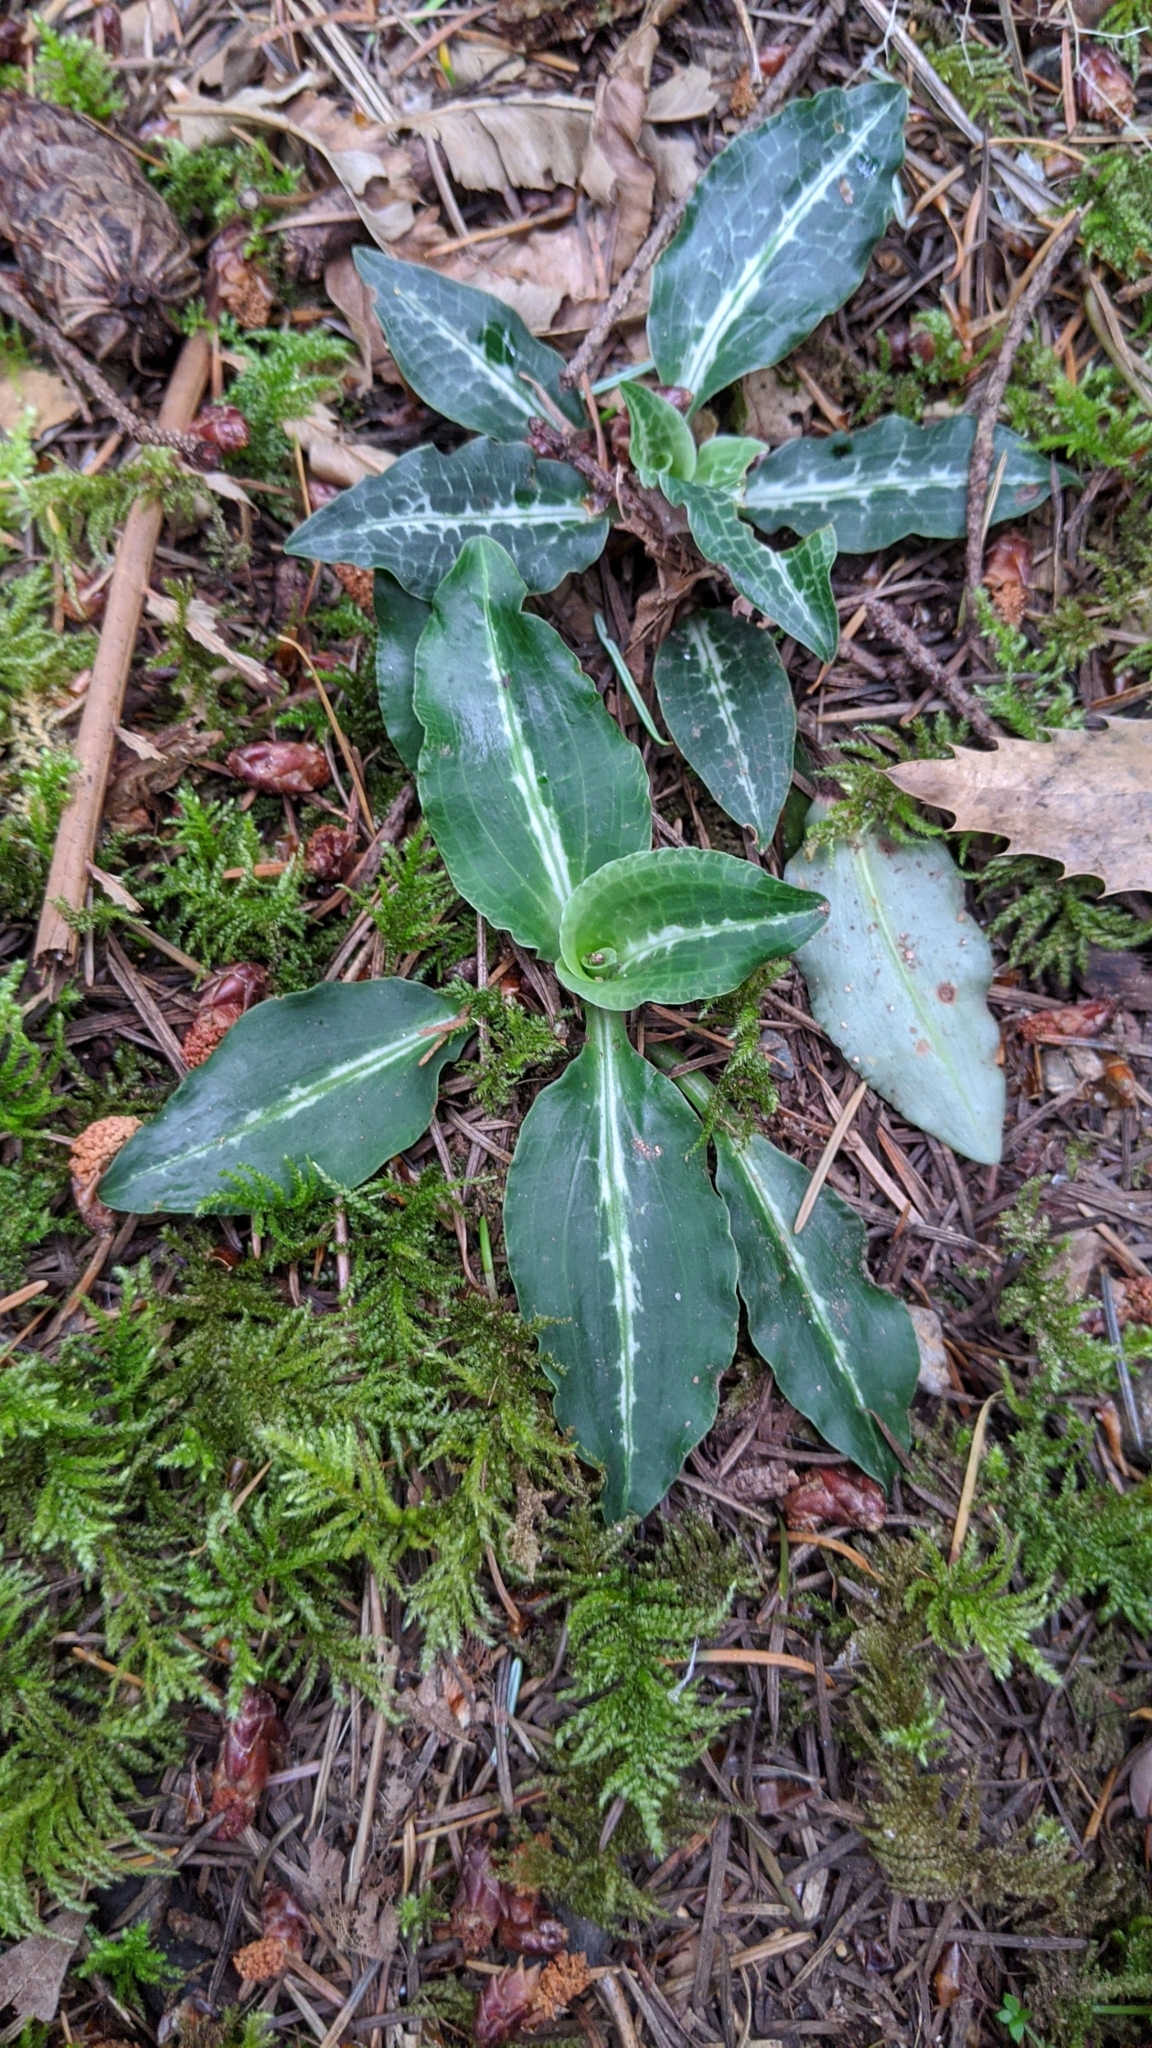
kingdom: Plantae
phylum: Tracheophyta
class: Liliopsida
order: Asparagales
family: Orchidaceae
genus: Goodyera
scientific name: Goodyera oblongifolia
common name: Giant rattlesnake-plantain
